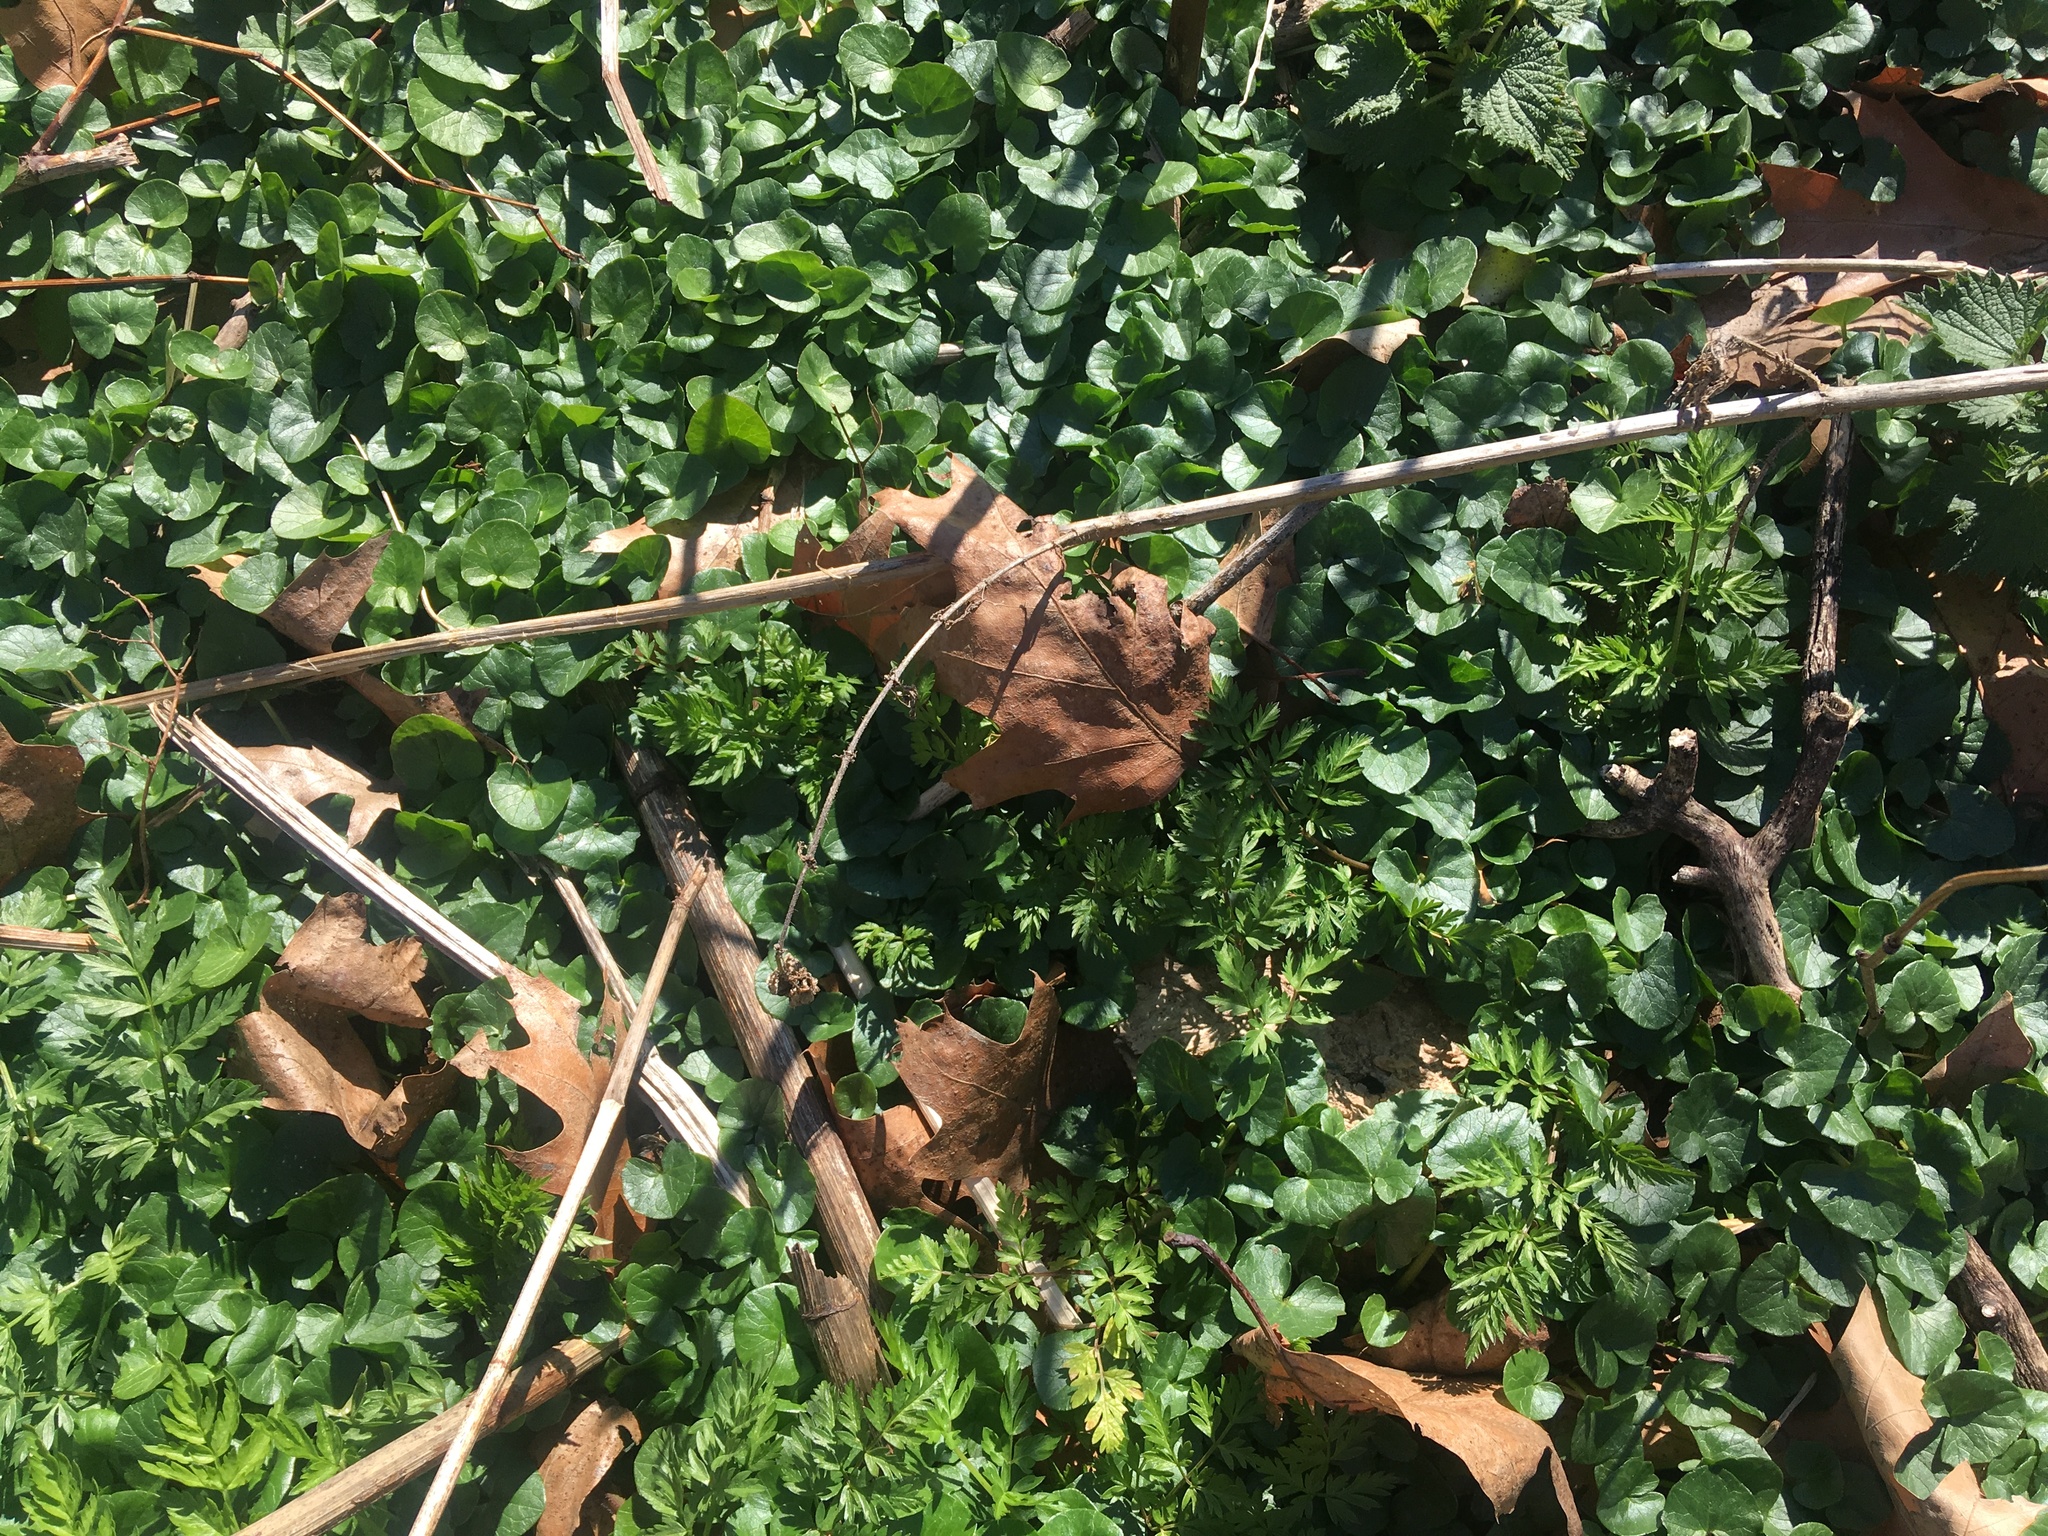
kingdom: Plantae
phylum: Tracheophyta
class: Magnoliopsida
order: Ranunculales
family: Ranunculaceae
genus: Ficaria
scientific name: Ficaria verna
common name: Lesser celandine
